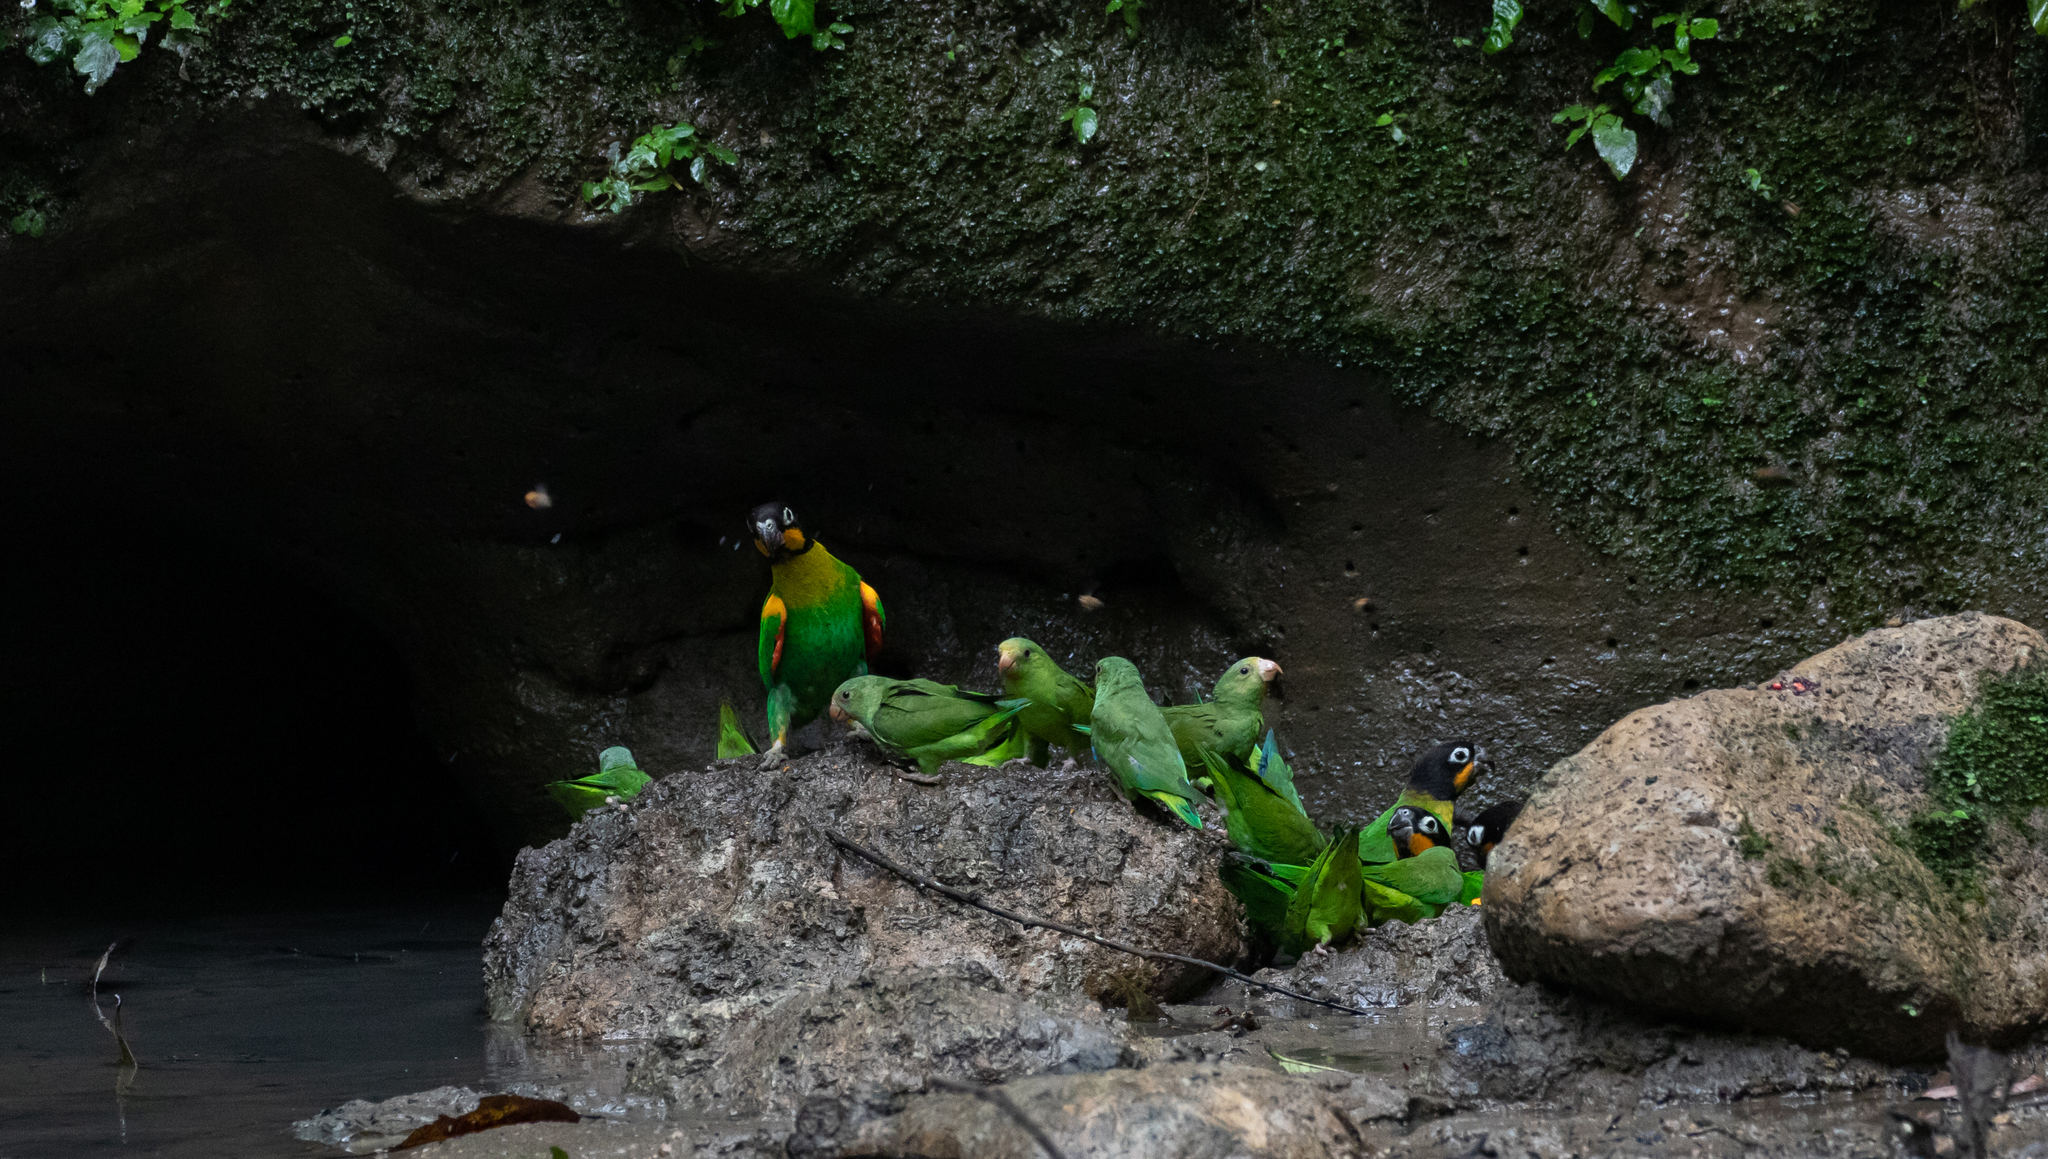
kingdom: Animalia
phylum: Chordata
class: Aves
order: Psittaciformes
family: Psittacidae
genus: Pionopsitta
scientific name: Pionopsitta barrabandi
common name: Orange-cheeked parrot
